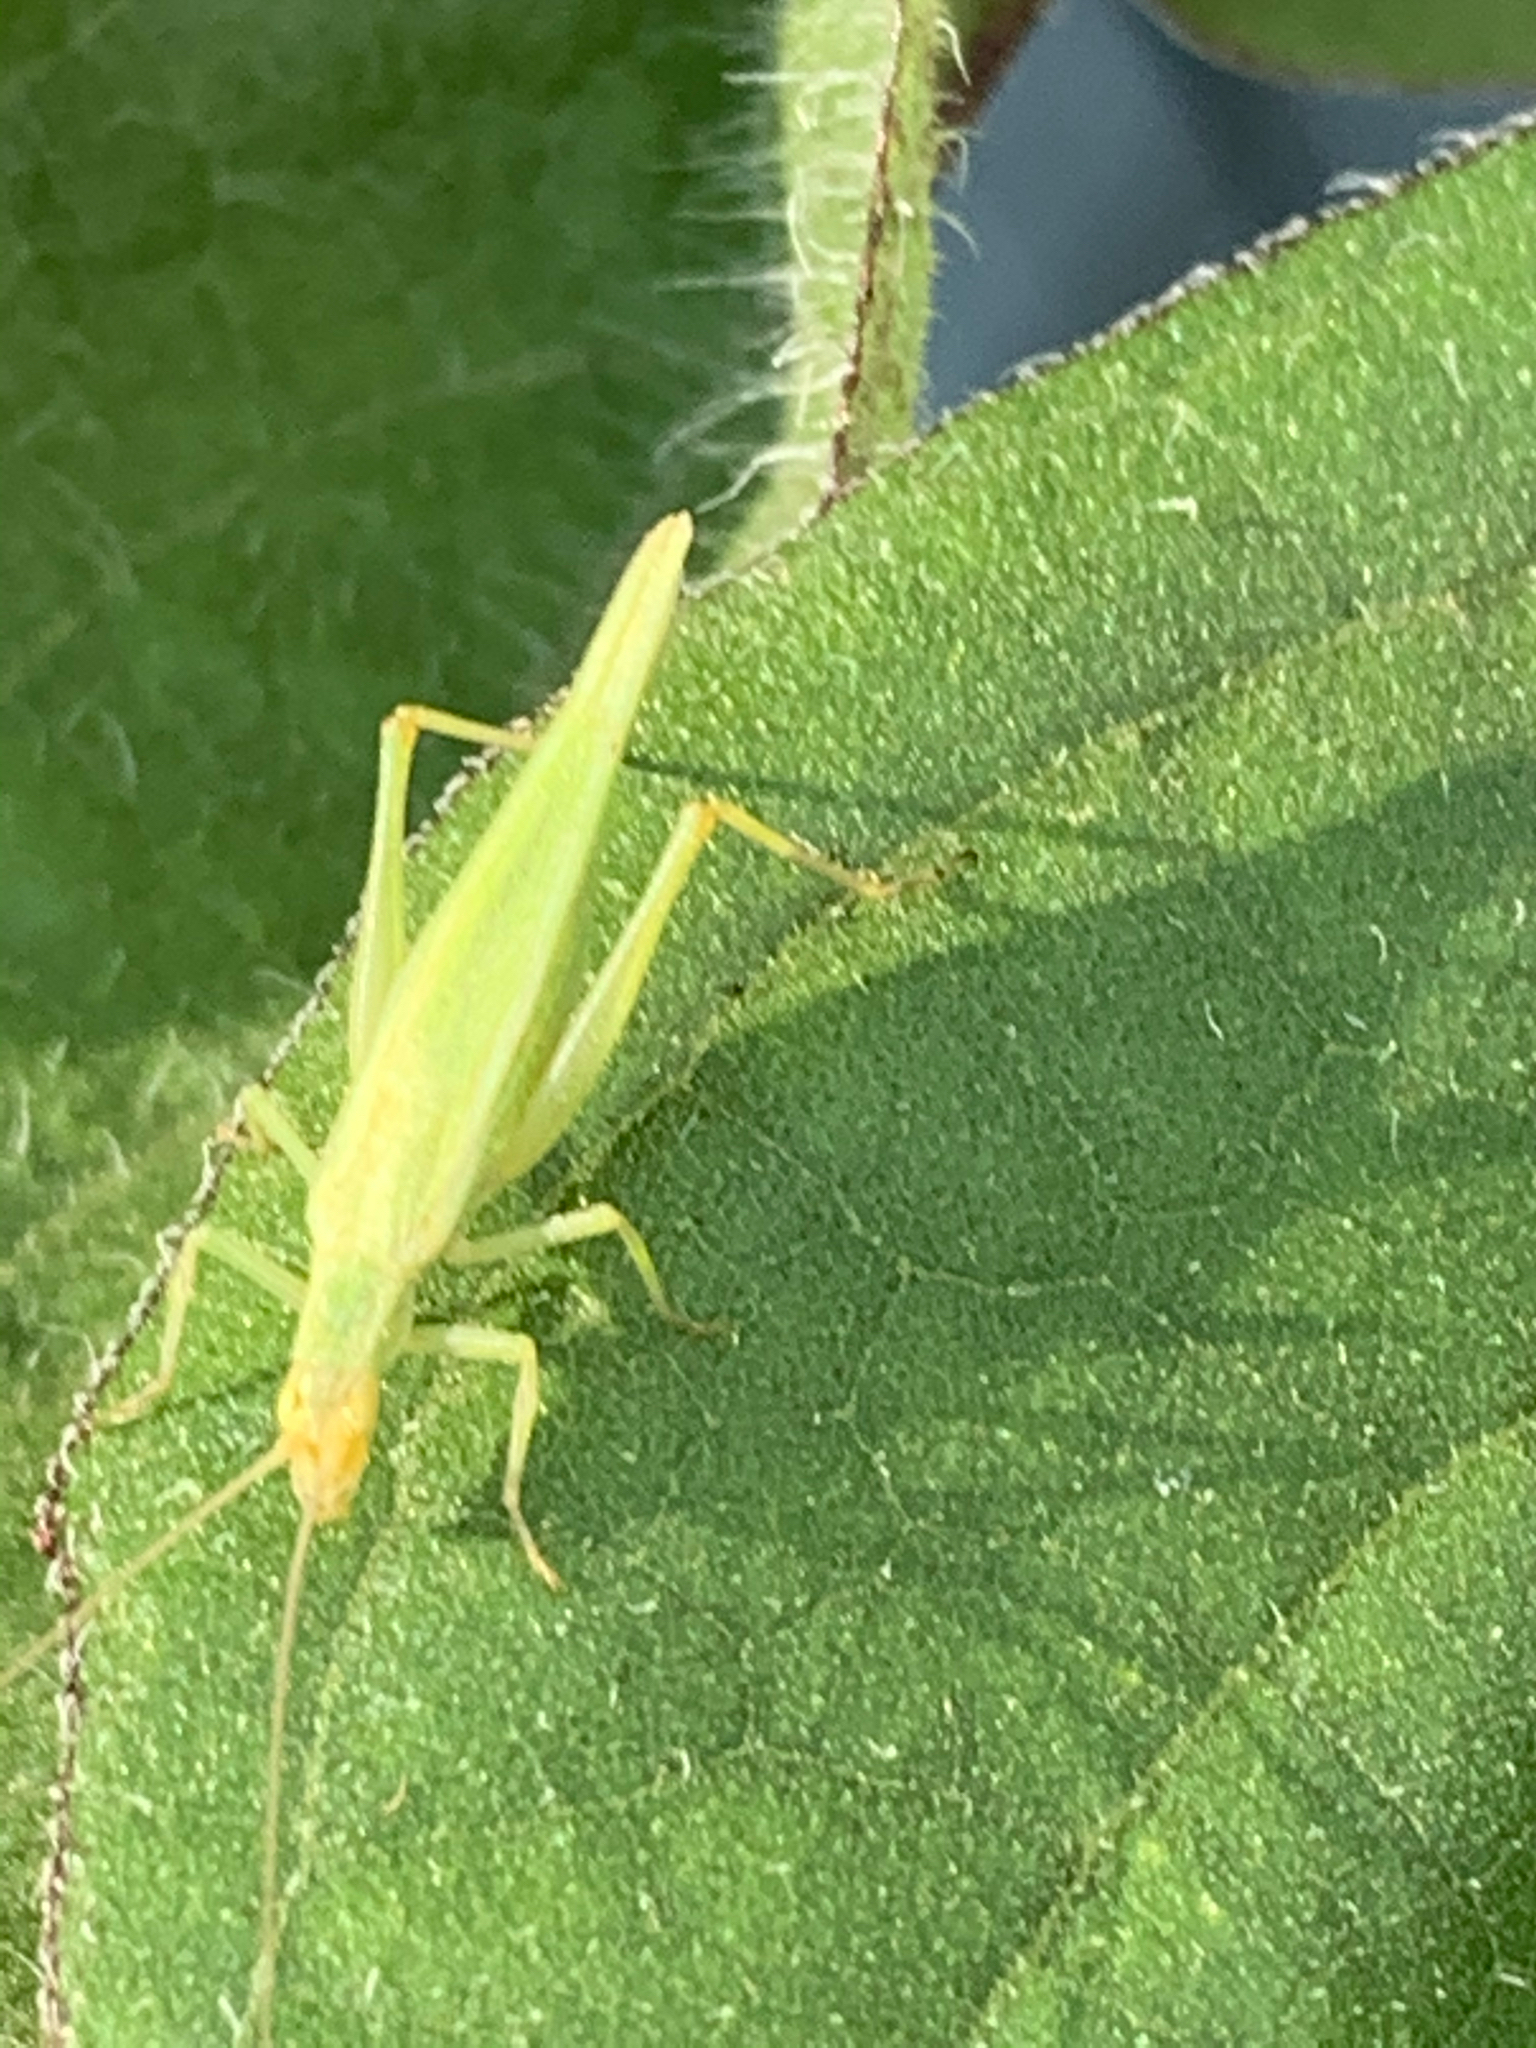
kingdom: Animalia
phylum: Arthropoda
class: Insecta
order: Orthoptera
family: Gryllidae
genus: Oecanthus
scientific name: Oecanthus
